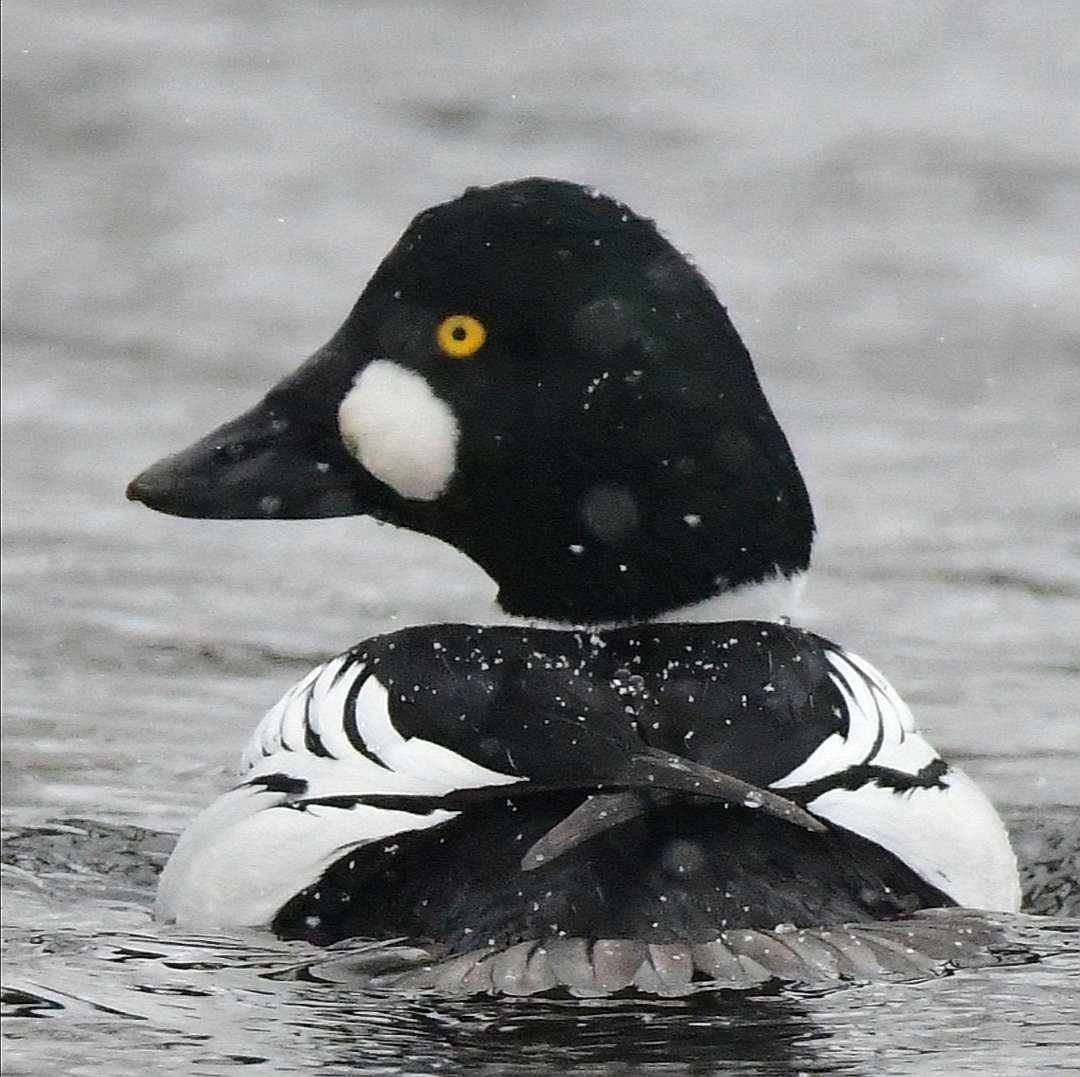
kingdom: Animalia
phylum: Chordata
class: Aves
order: Anseriformes
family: Anatidae
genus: Bucephala
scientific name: Bucephala clangula
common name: Common goldeneye
